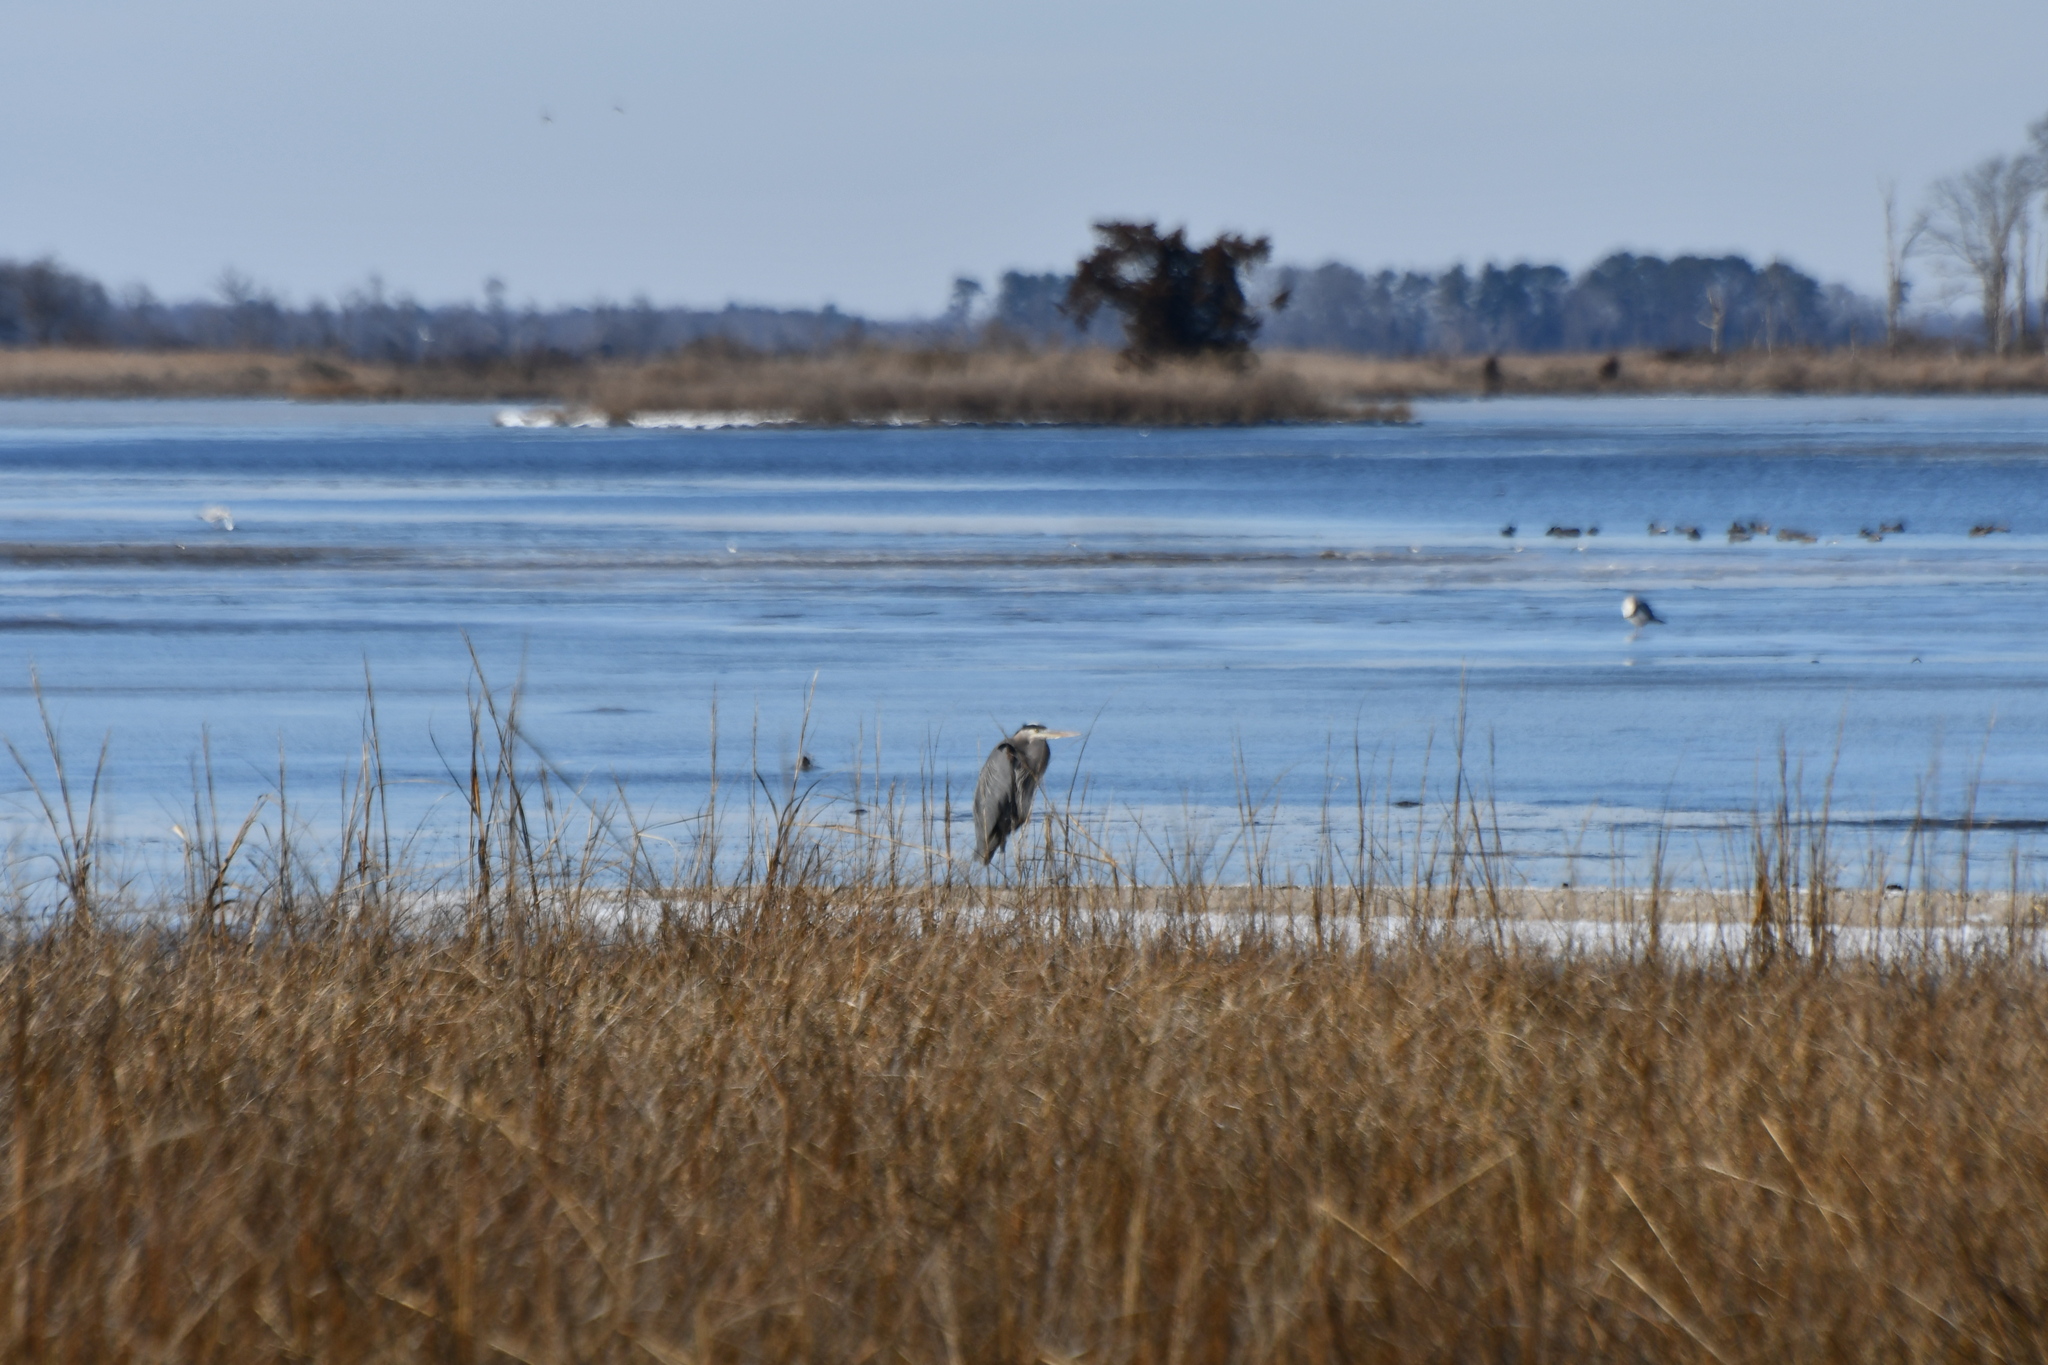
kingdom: Animalia
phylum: Chordata
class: Aves
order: Pelecaniformes
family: Ardeidae
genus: Ardea
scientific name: Ardea herodias
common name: Great blue heron
